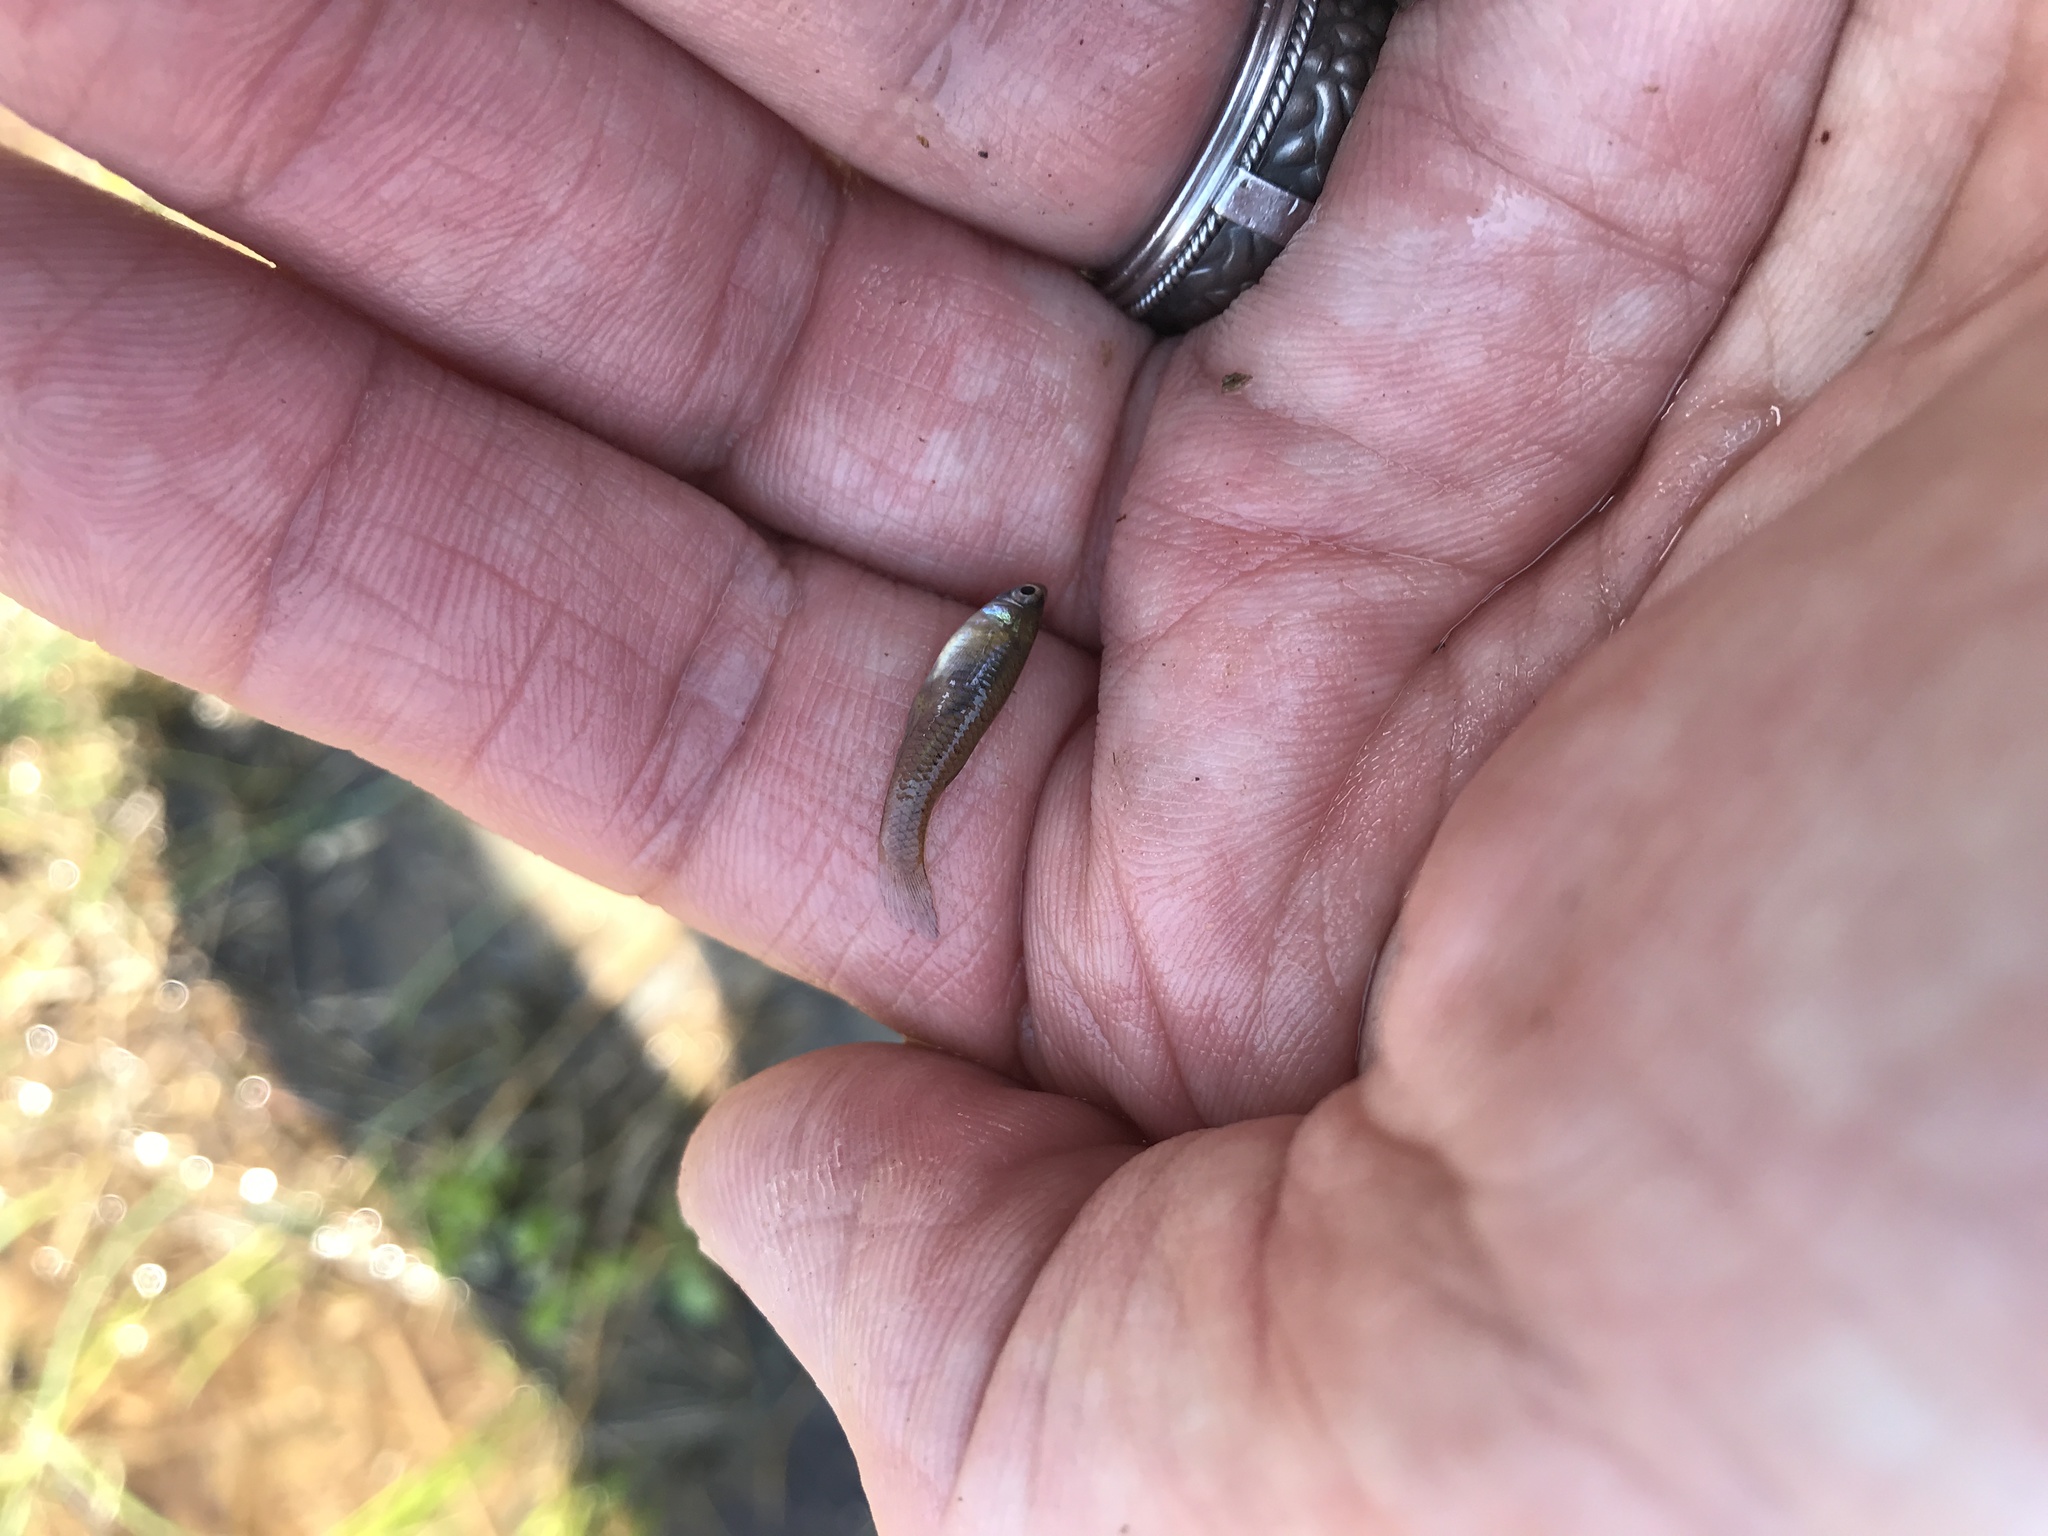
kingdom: Animalia
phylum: Chordata
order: Cyprinodontiformes
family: Poeciliidae
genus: Gambusia
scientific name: Gambusia affinis
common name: Mosquitofish
